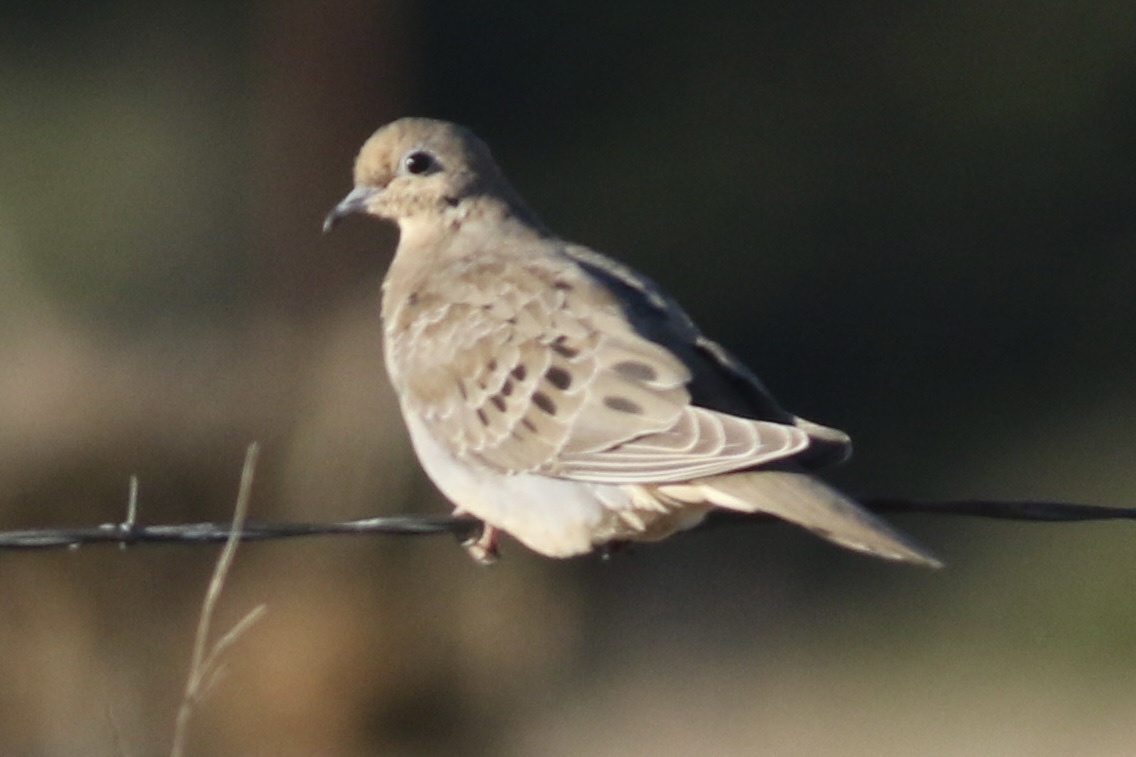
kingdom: Animalia
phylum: Chordata
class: Aves
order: Columbiformes
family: Columbidae
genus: Zenaida
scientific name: Zenaida macroura
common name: Mourning dove
